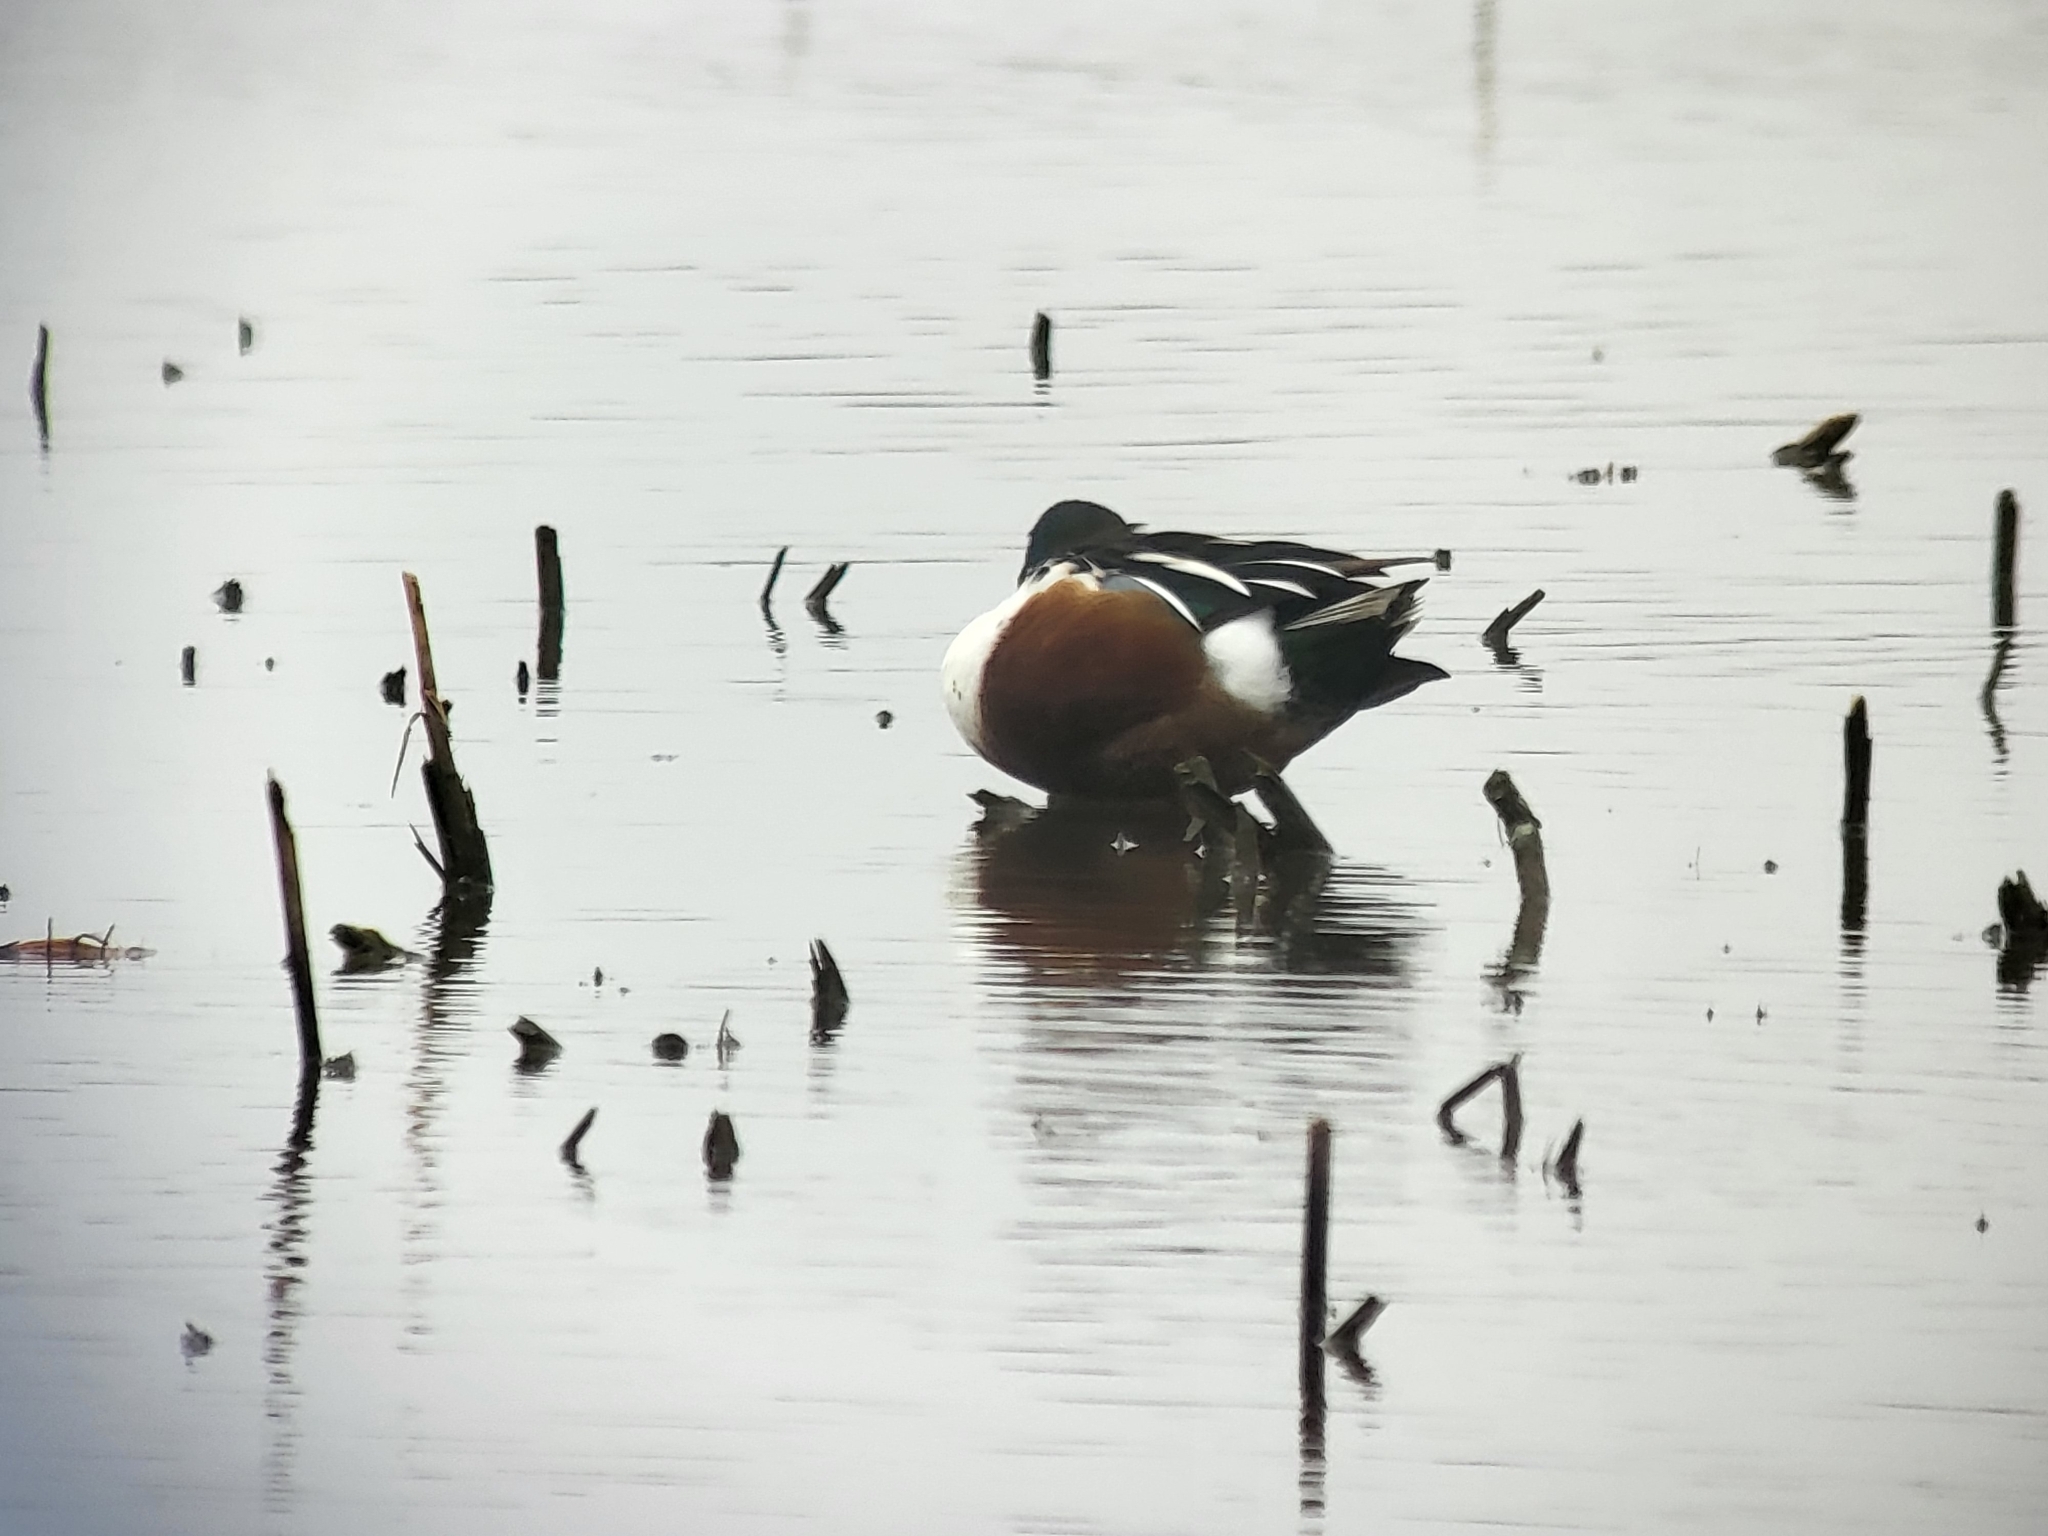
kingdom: Animalia
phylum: Chordata
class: Aves
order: Anseriformes
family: Anatidae
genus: Spatula
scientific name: Spatula clypeata
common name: Northern shoveler
